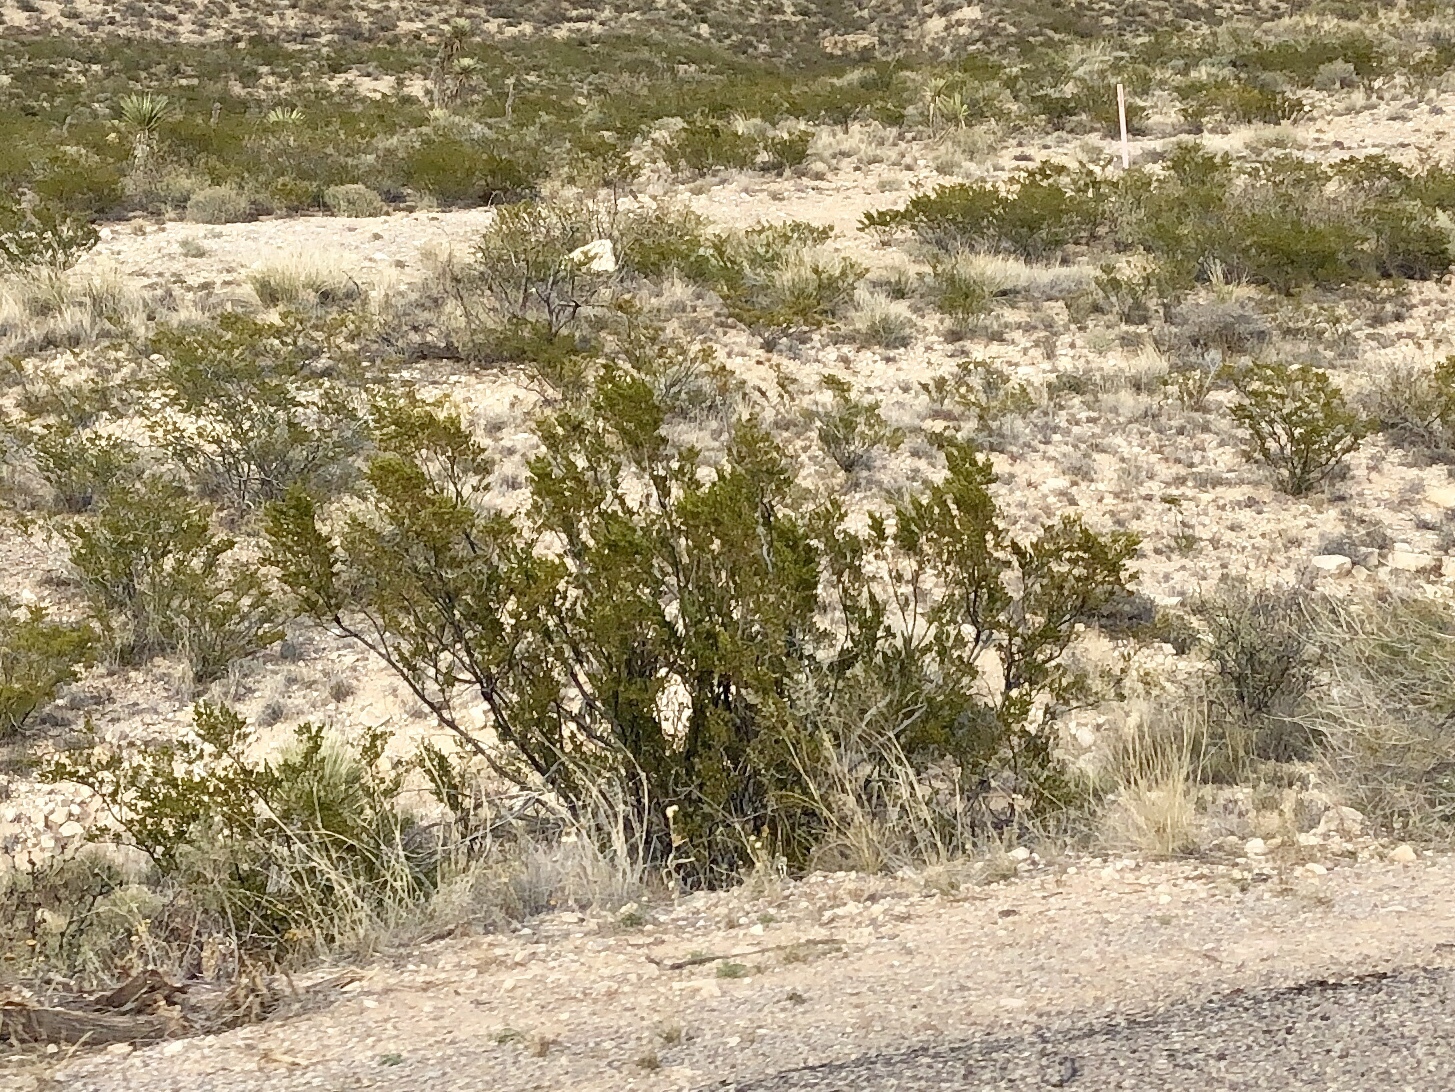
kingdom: Plantae
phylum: Tracheophyta
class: Magnoliopsida
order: Zygophyllales
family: Zygophyllaceae
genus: Larrea
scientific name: Larrea tridentata
